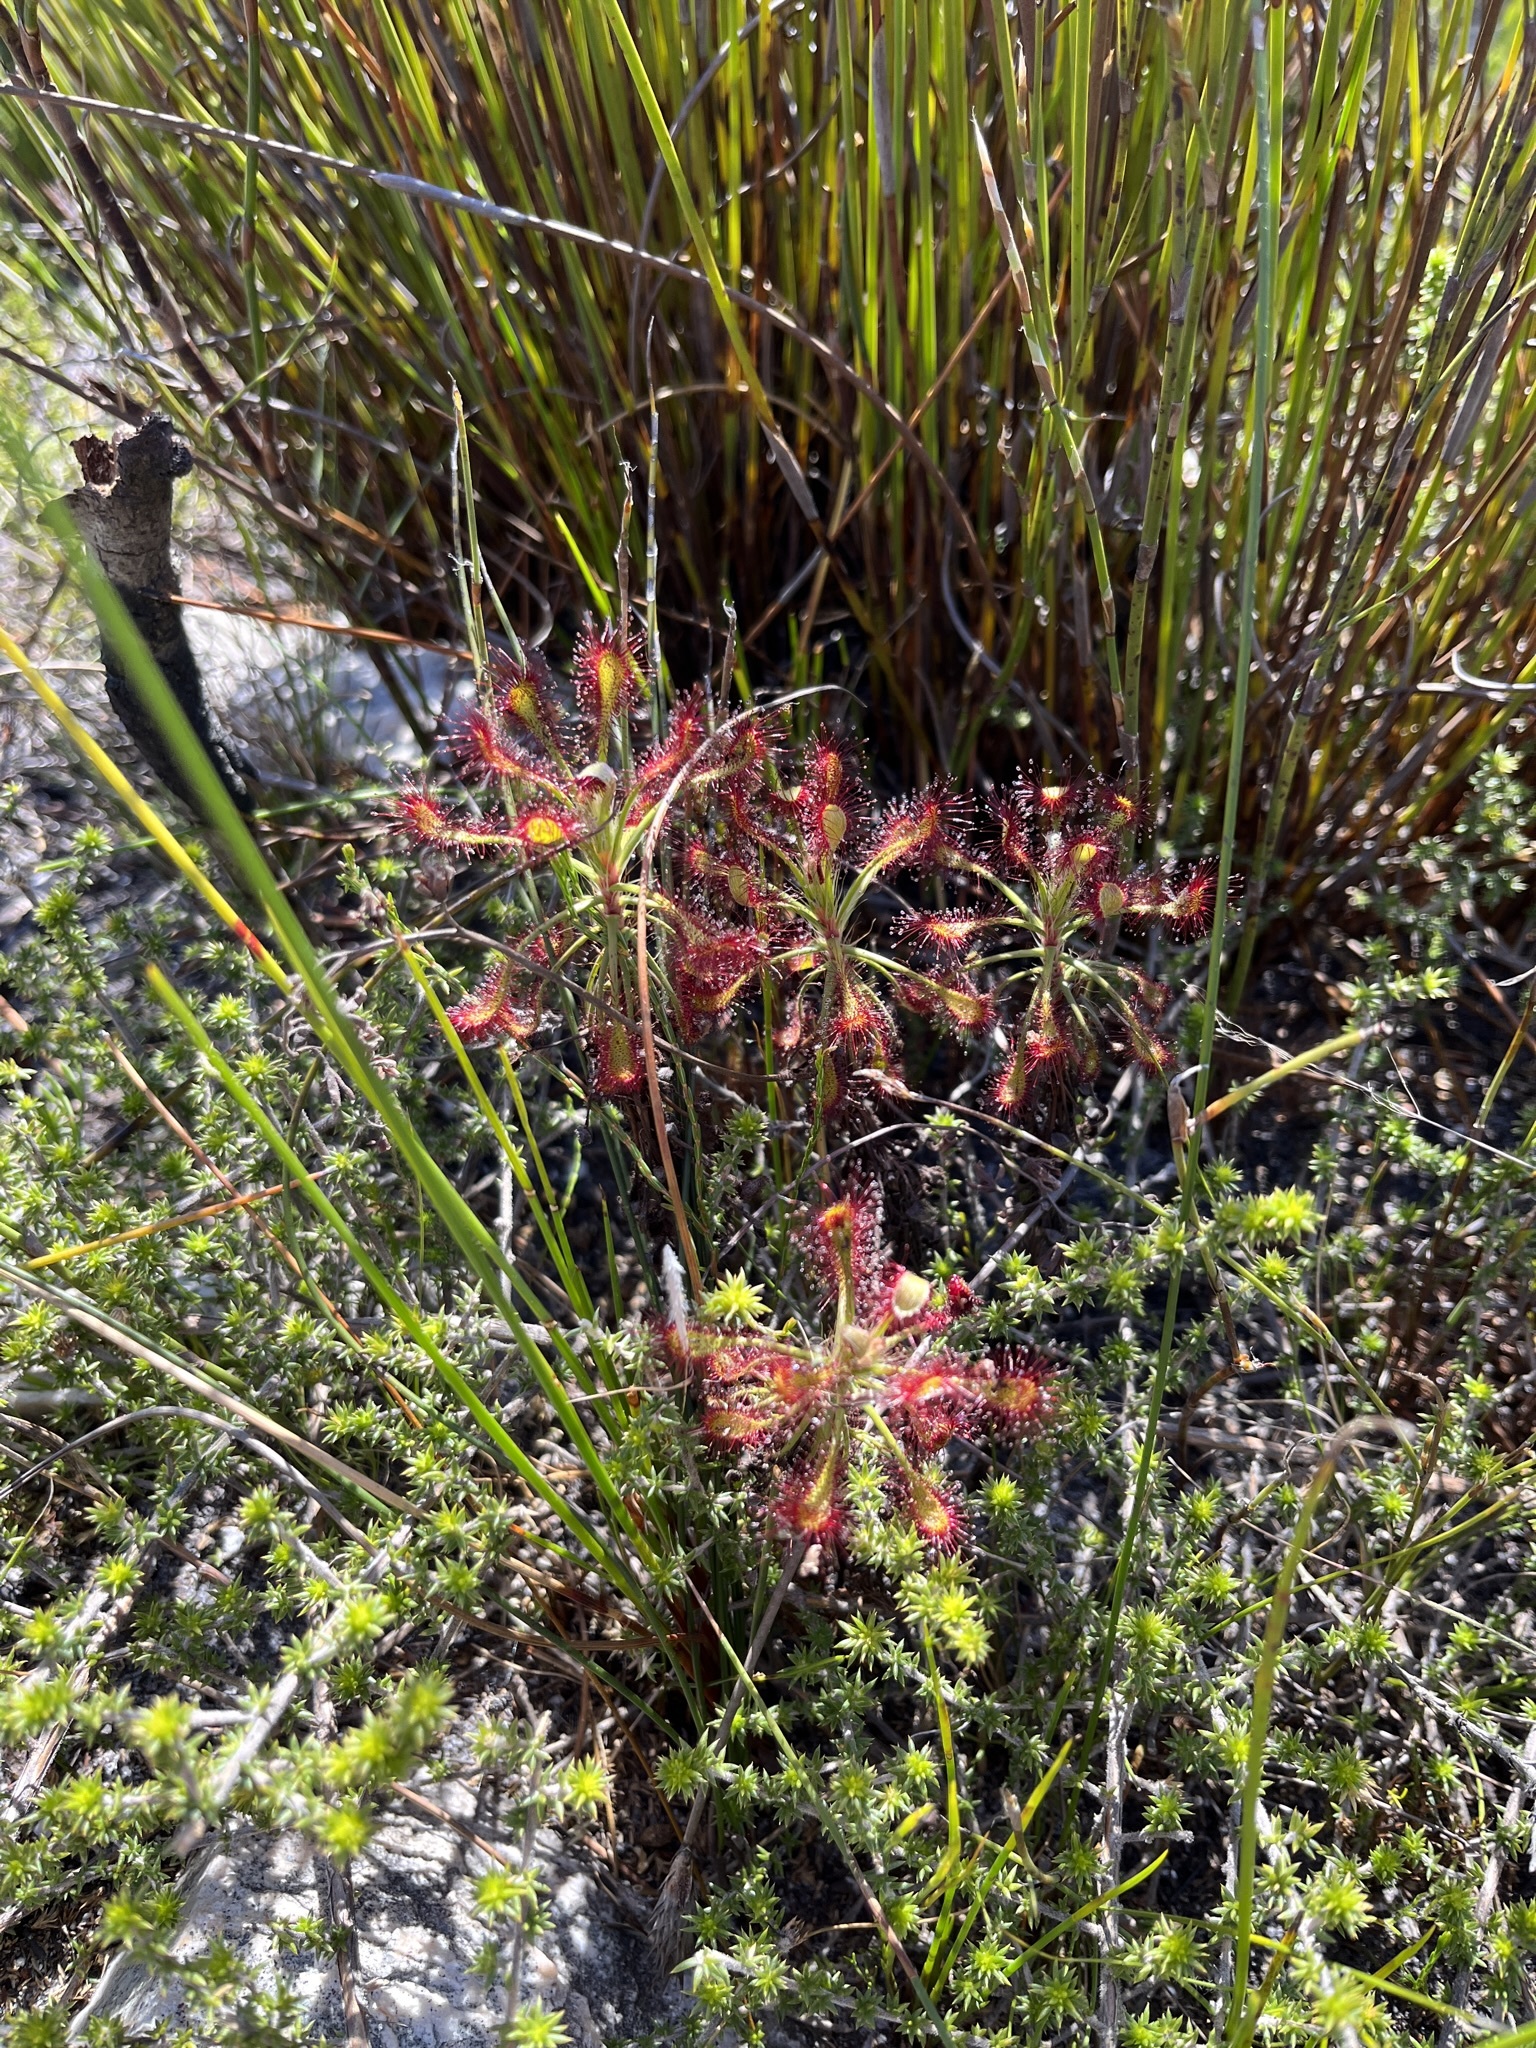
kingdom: Plantae
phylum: Tracheophyta
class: Magnoliopsida
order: Caryophyllales
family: Droseraceae
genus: Drosera
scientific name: Drosera glabripes
